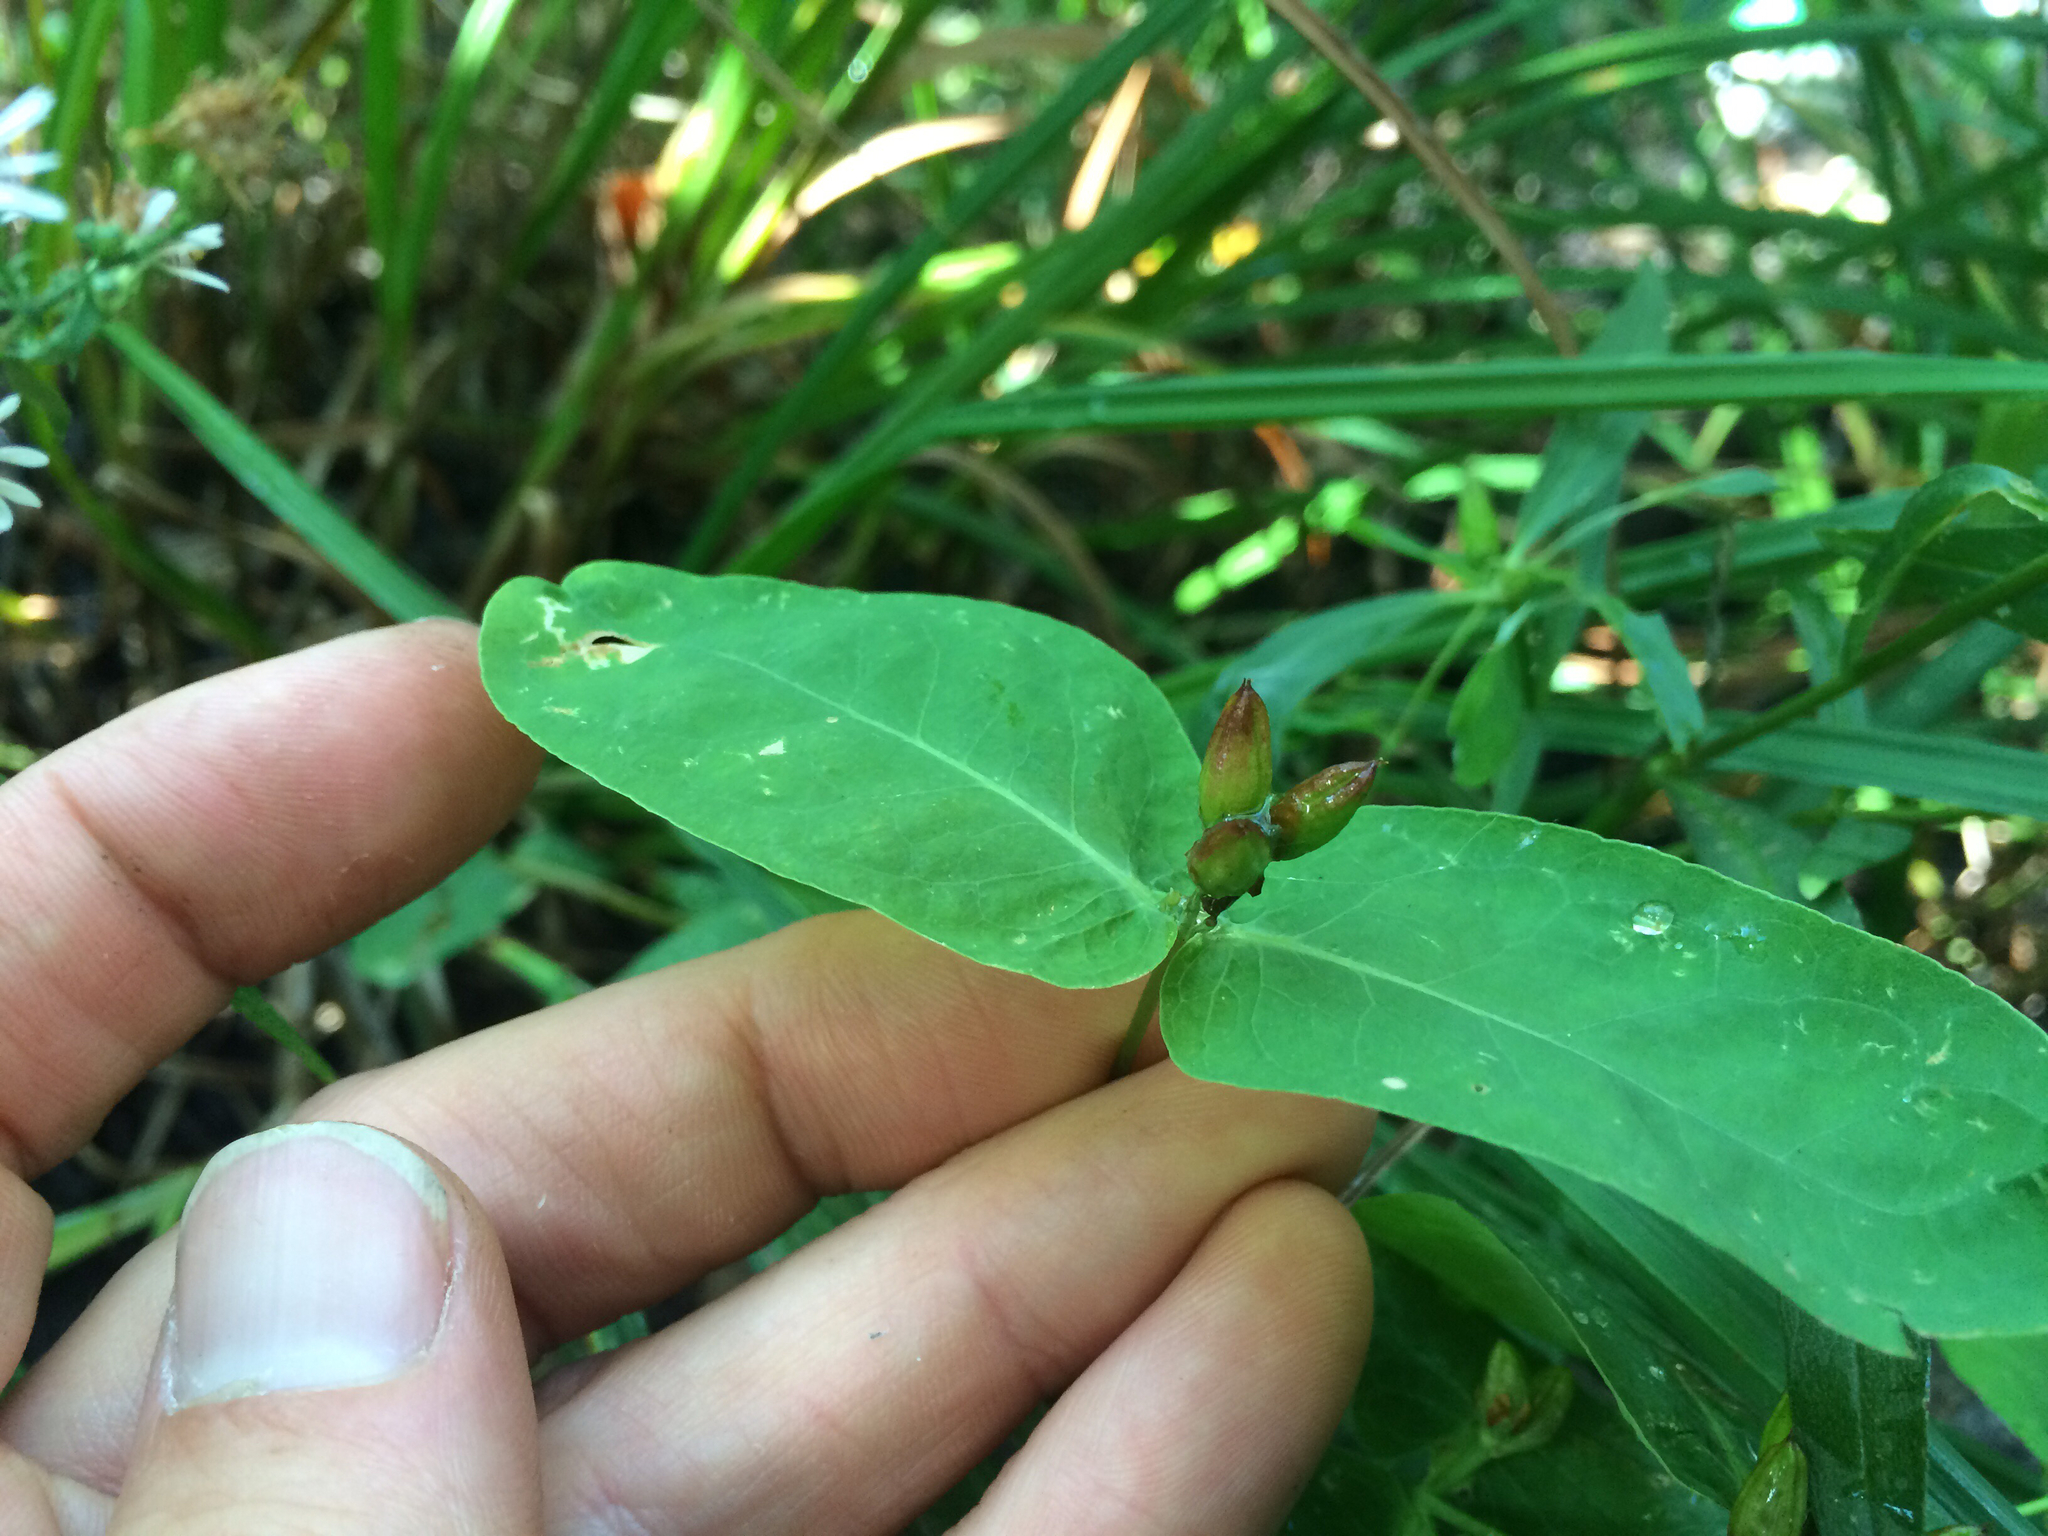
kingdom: Plantae
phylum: Tracheophyta
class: Magnoliopsida
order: Malpighiales
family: Hypericaceae
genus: Triadenum
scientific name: Triadenum fraseri
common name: Fraser's marsh st. johnswort
